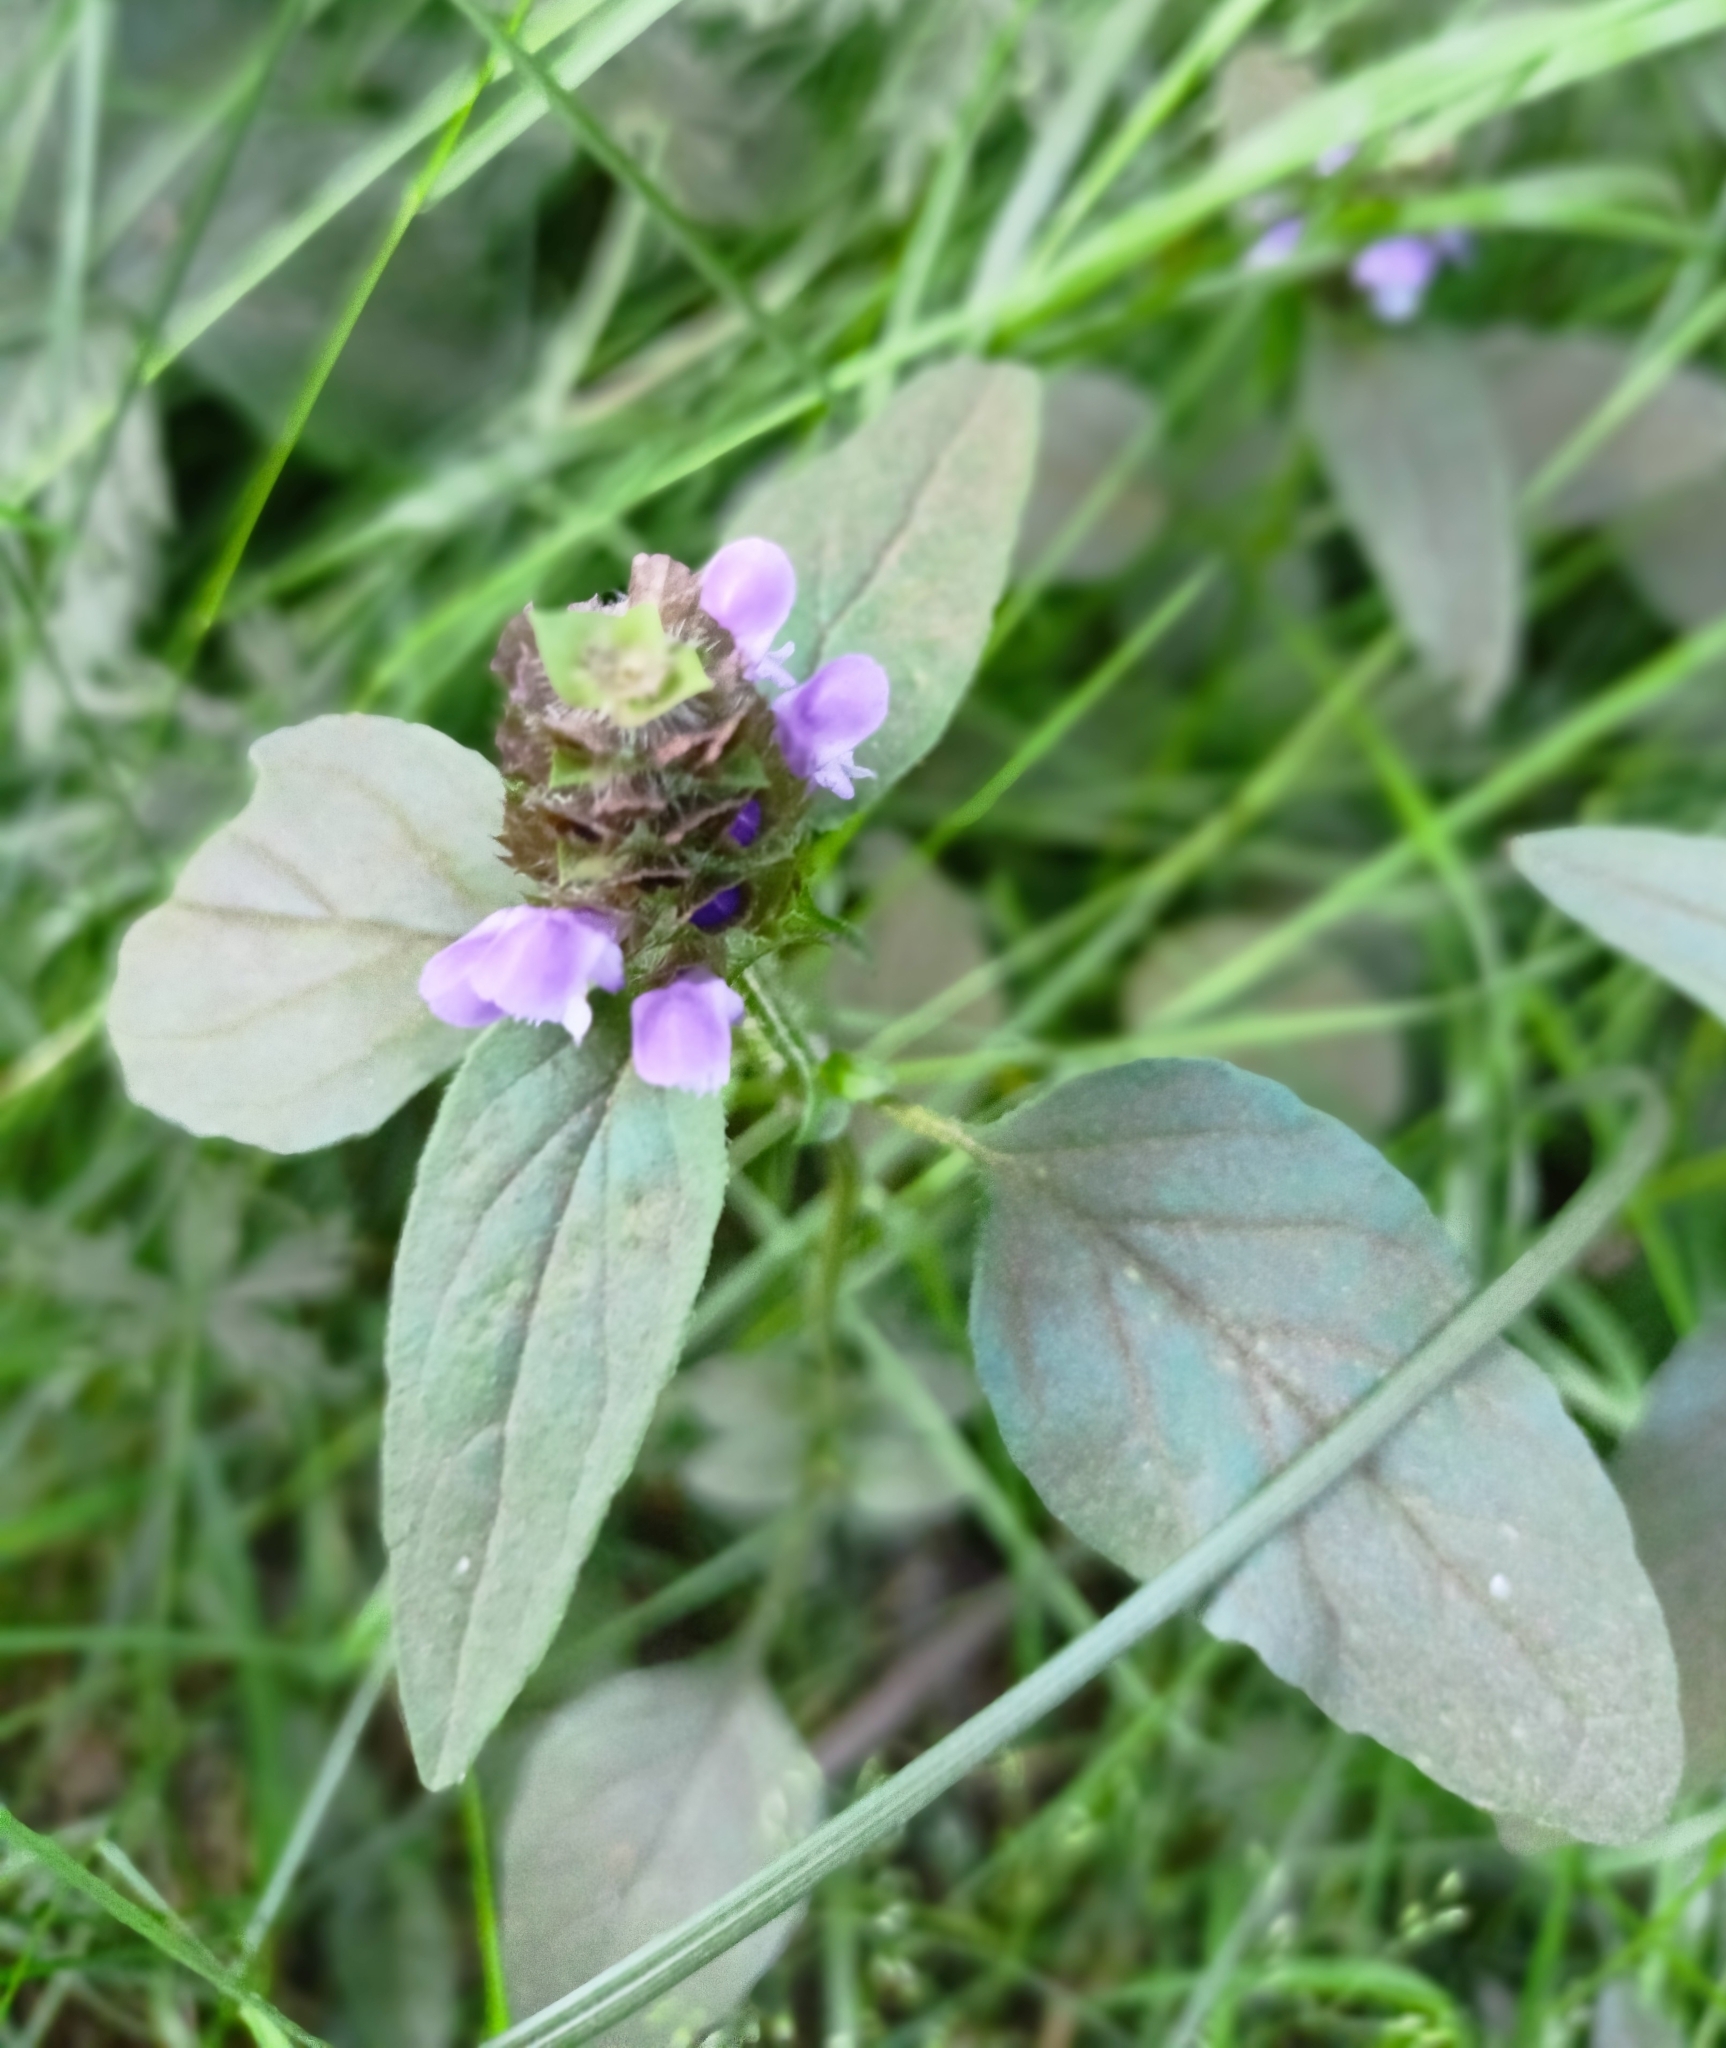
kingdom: Plantae
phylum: Tracheophyta
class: Magnoliopsida
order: Lamiales
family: Lamiaceae
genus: Prunella
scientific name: Prunella vulgaris
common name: Heal-all
